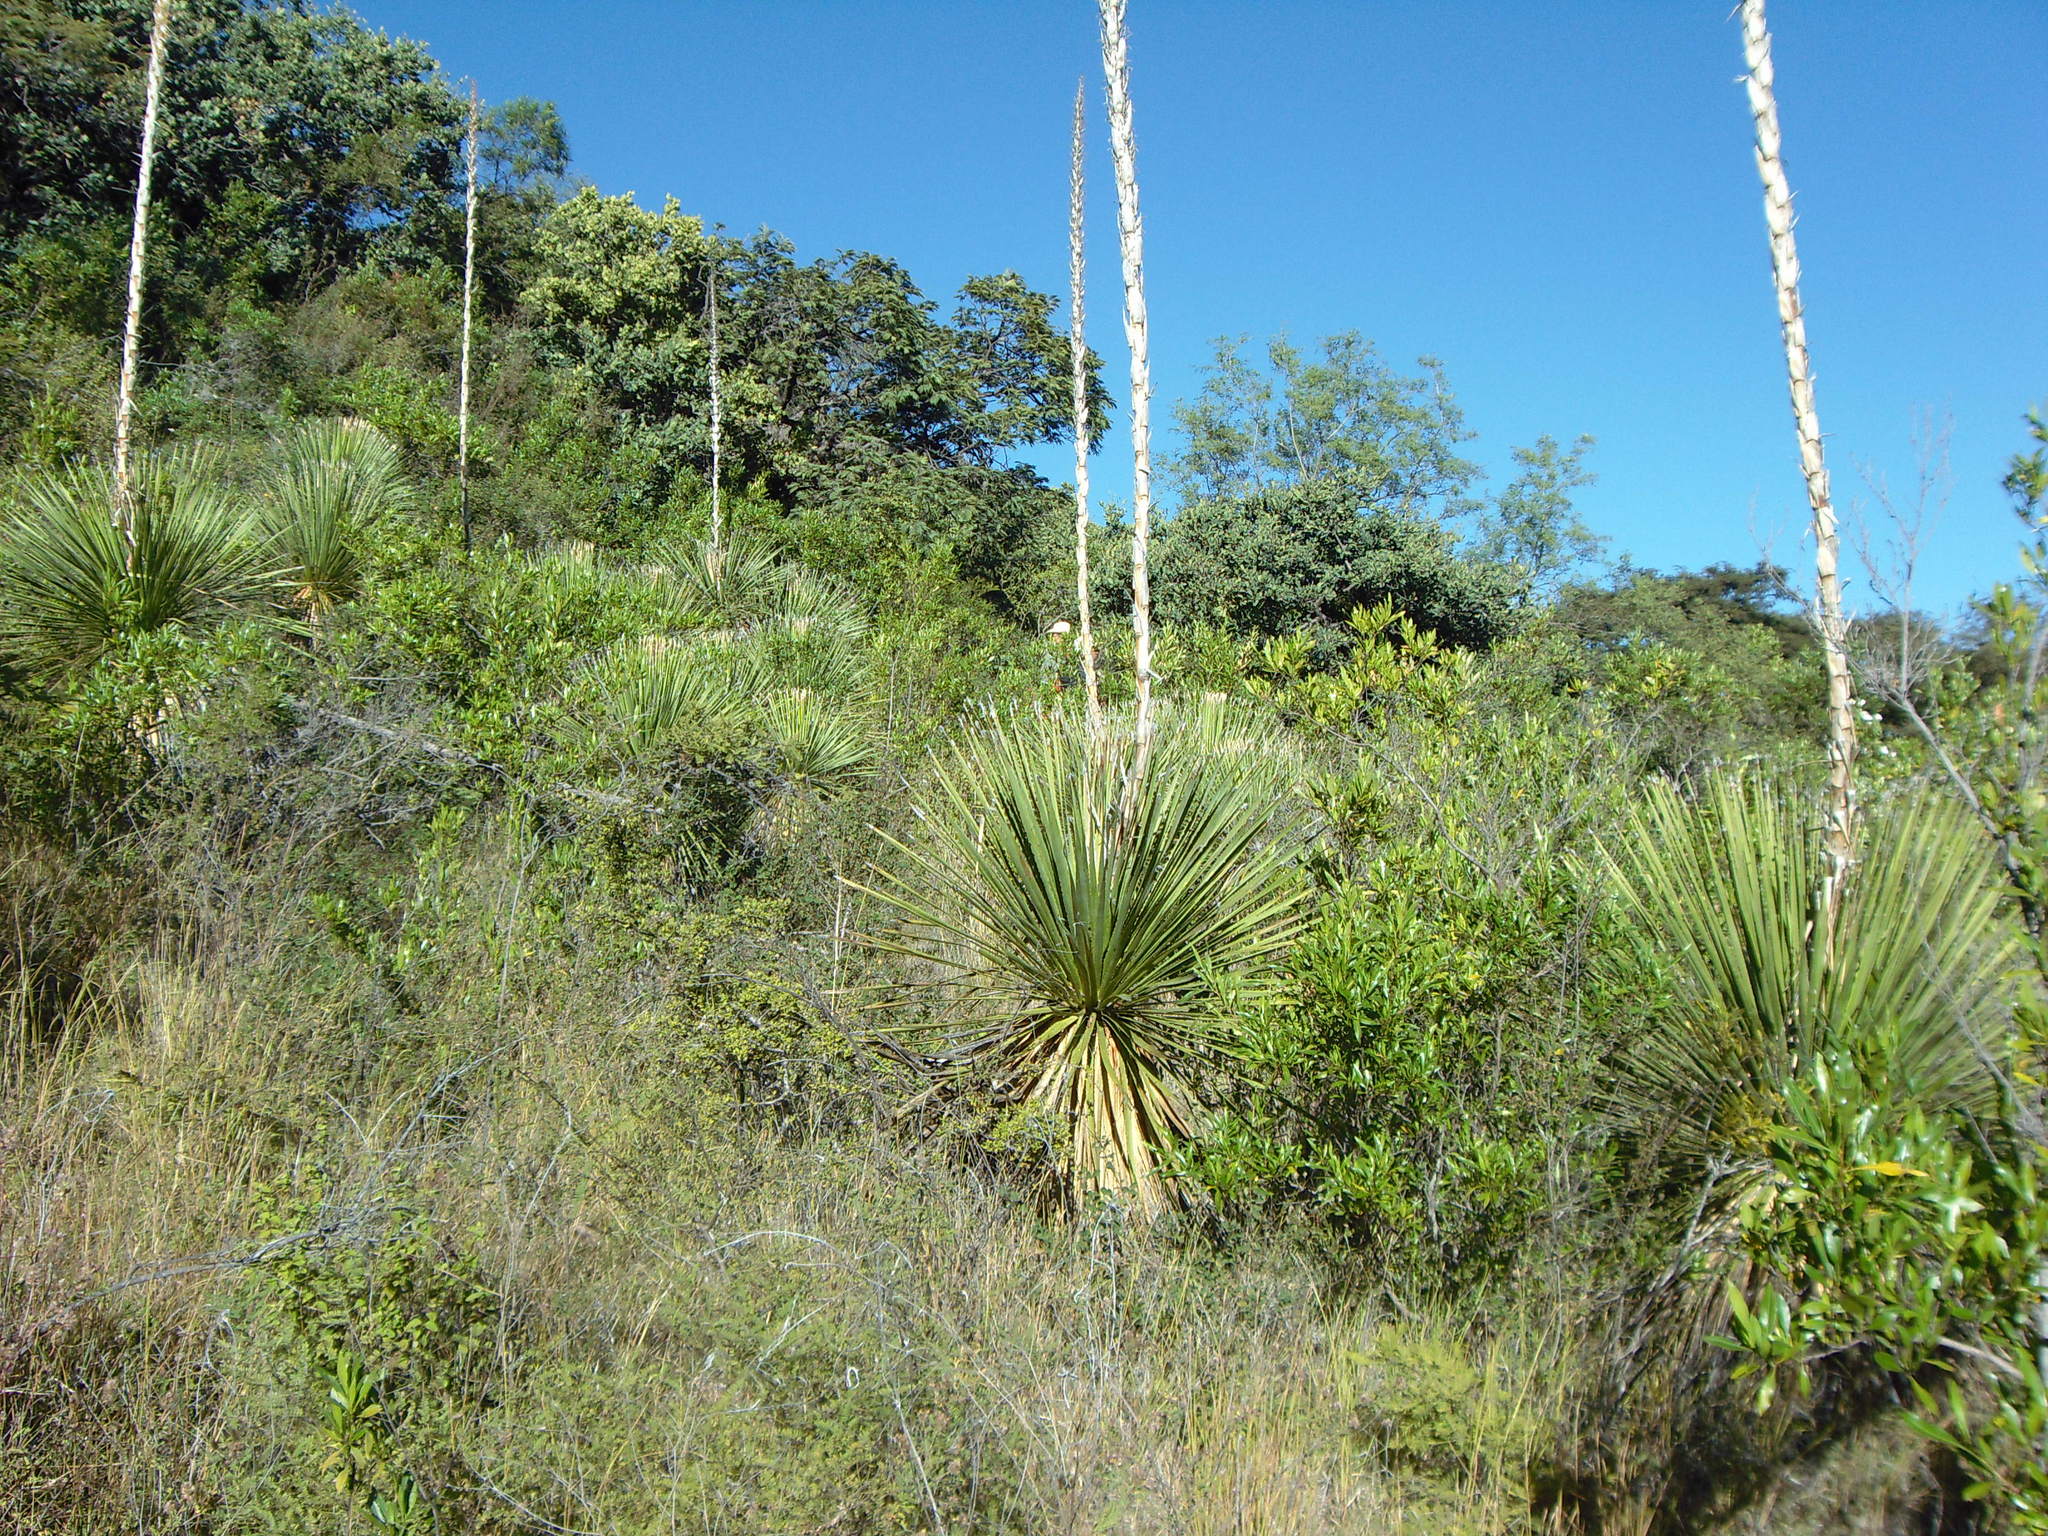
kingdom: Plantae
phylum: Tracheophyta
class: Liliopsida
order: Asparagales
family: Asparagaceae
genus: Dasylirion
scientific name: Dasylirion serratifolium
